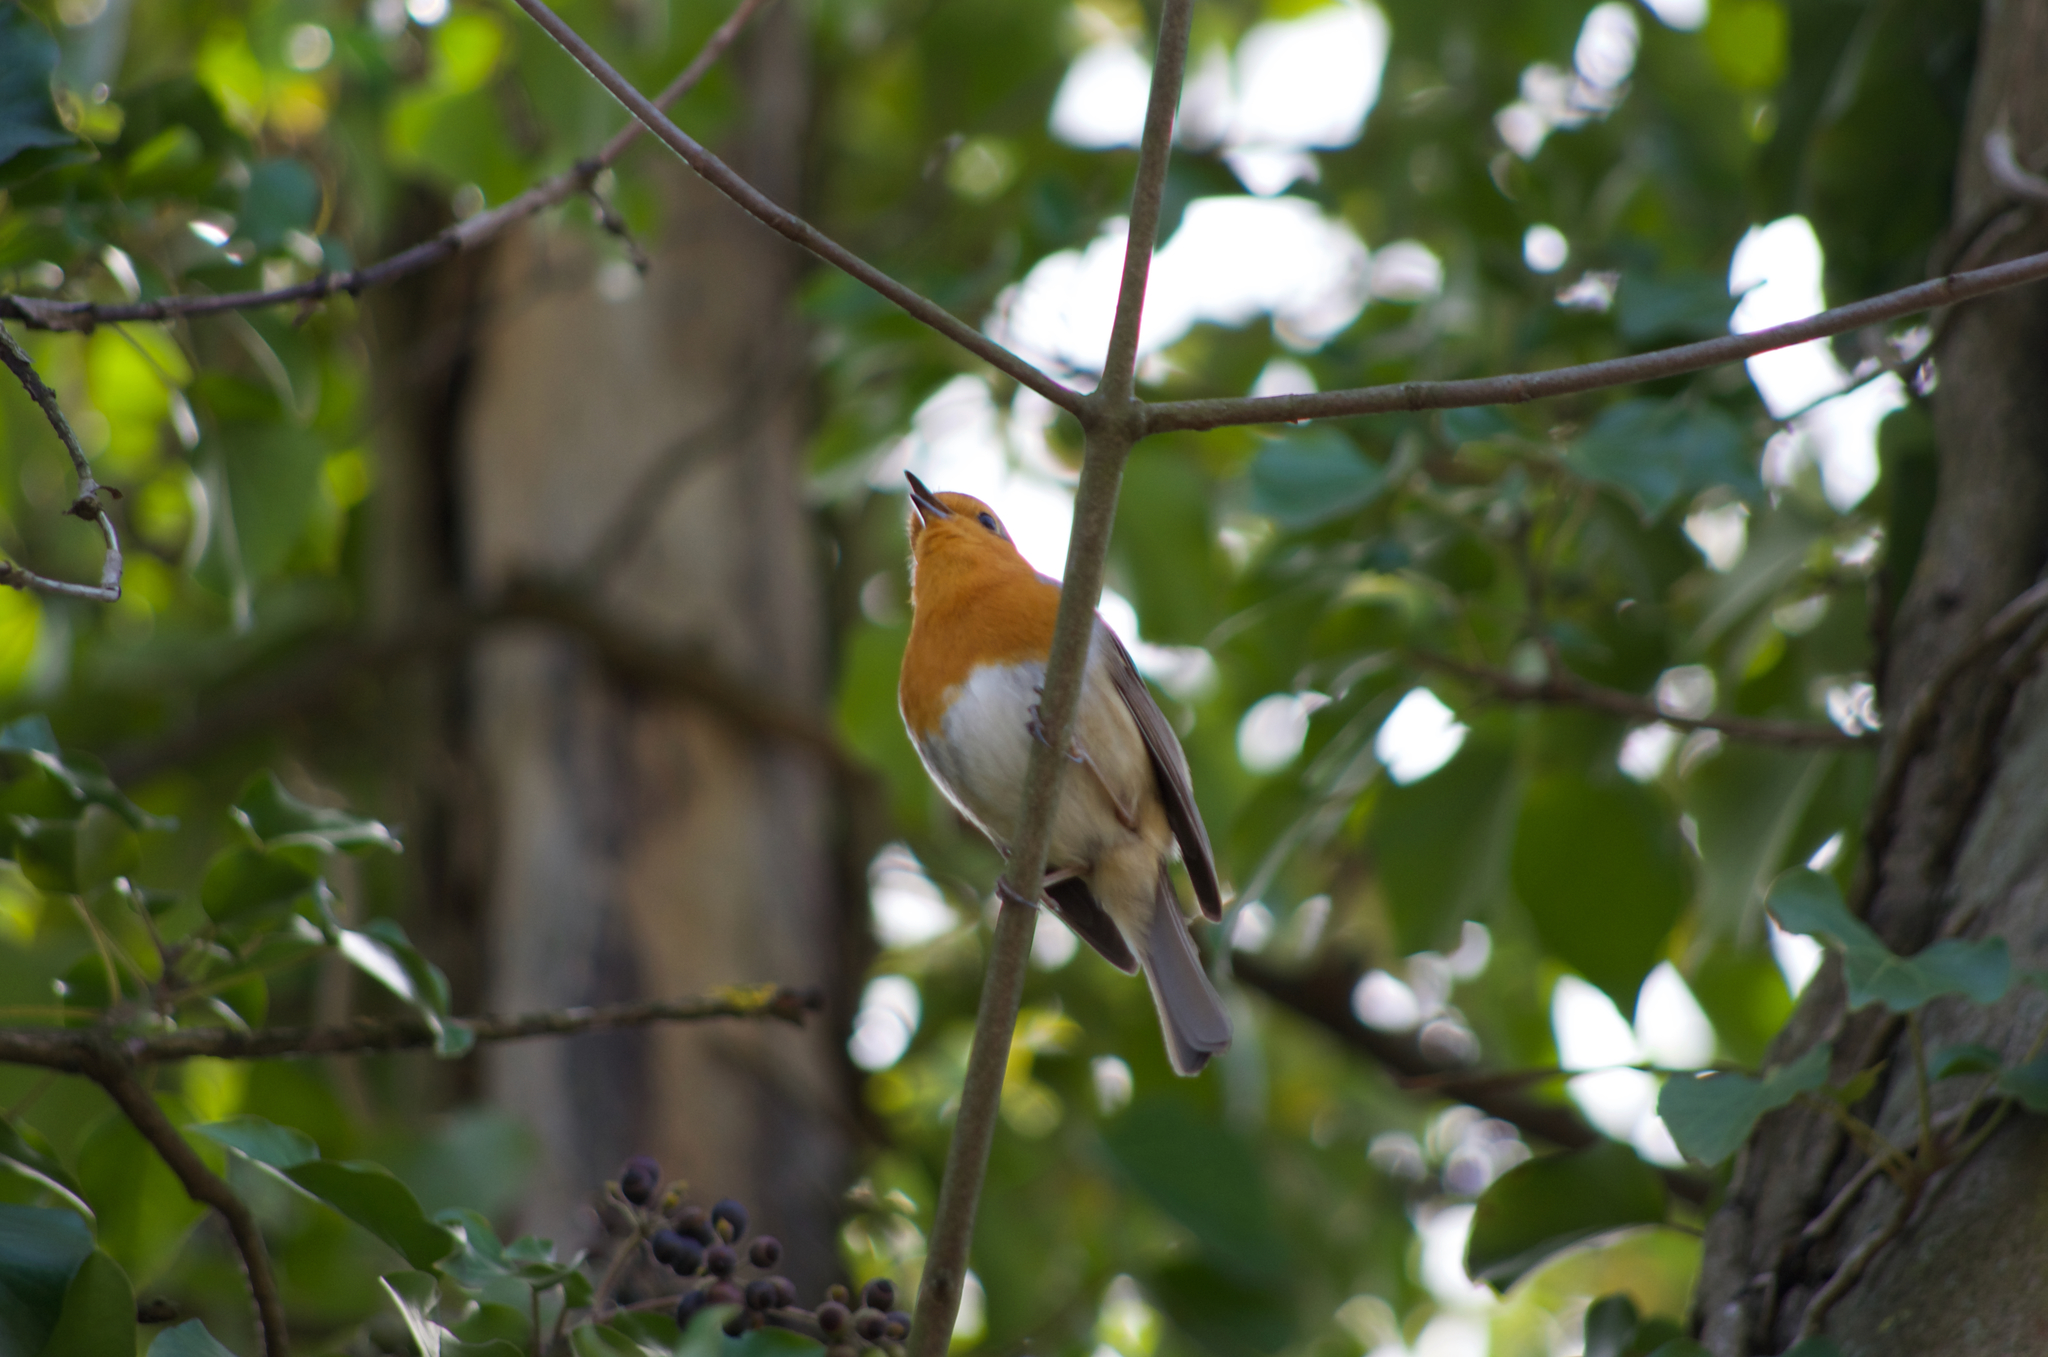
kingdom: Animalia
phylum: Chordata
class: Aves
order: Passeriformes
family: Muscicapidae
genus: Erithacus
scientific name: Erithacus rubecula
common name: European robin
